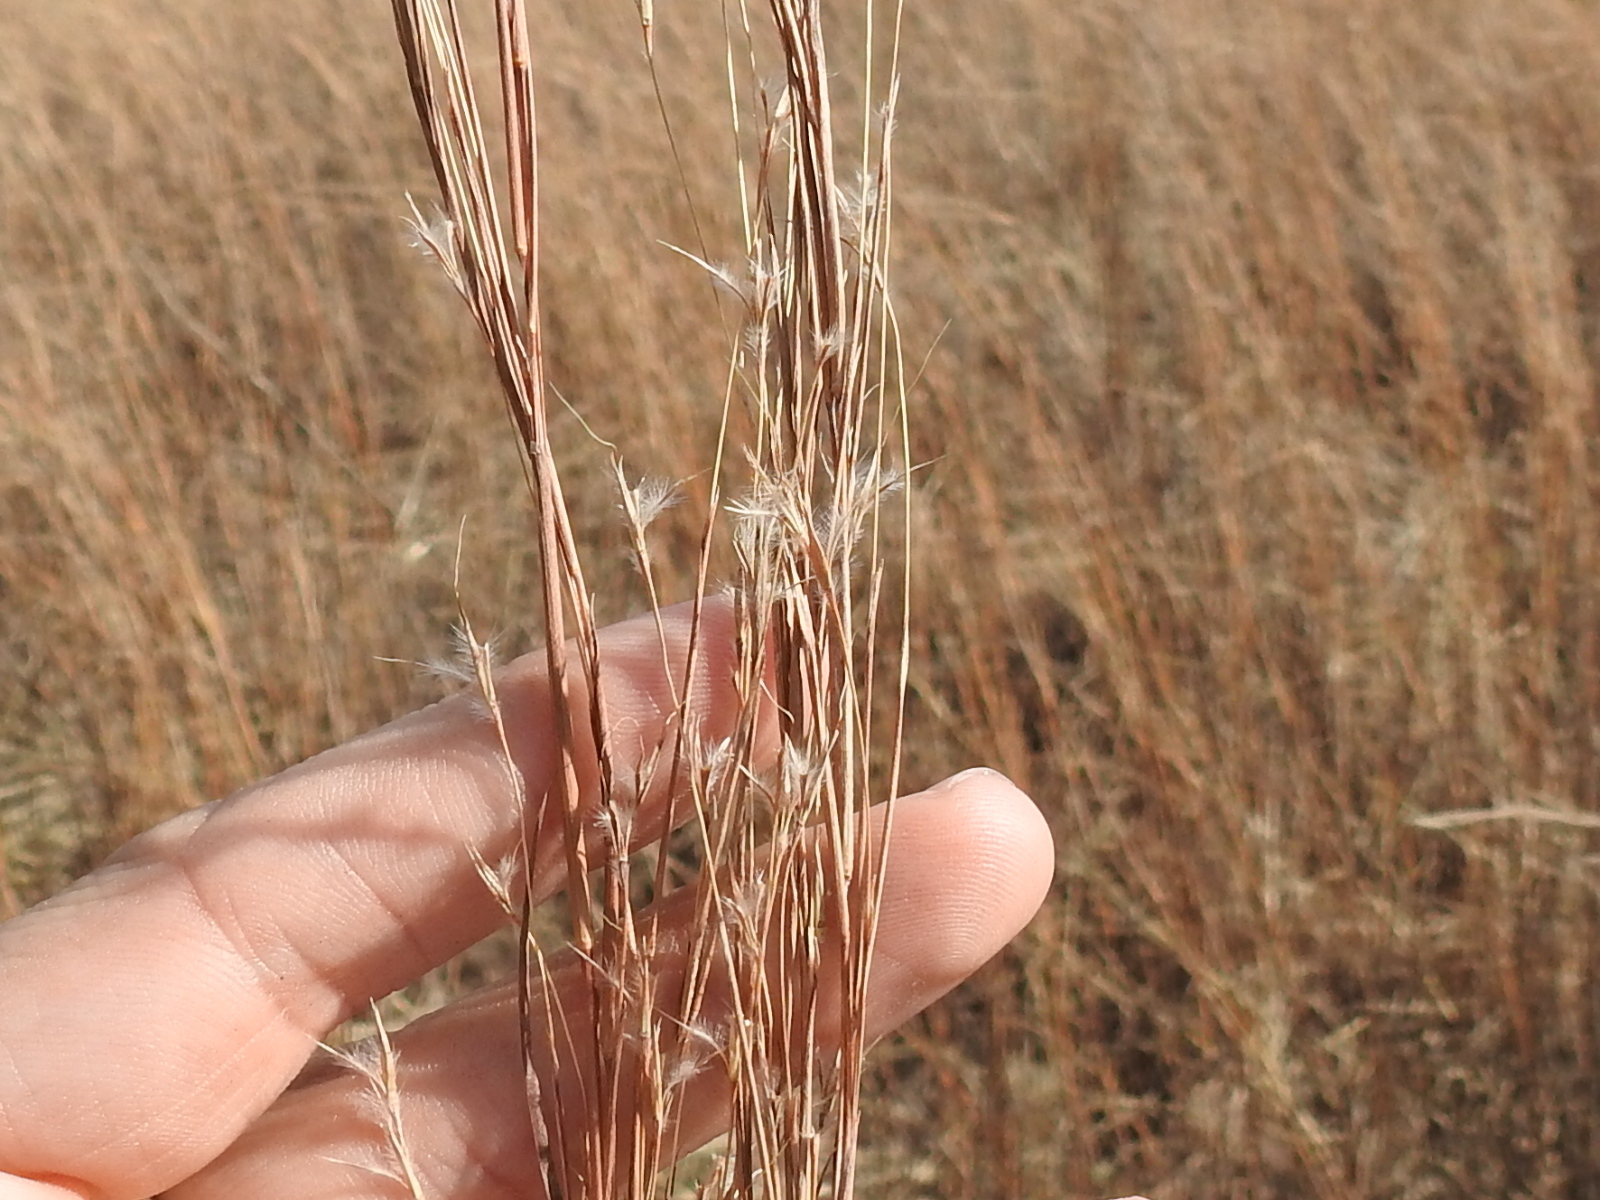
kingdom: Plantae
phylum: Tracheophyta
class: Liliopsida
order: Poales
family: Poaceae
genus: Schizachyrium
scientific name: Schizachyrium scoparium
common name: Little bluestem
